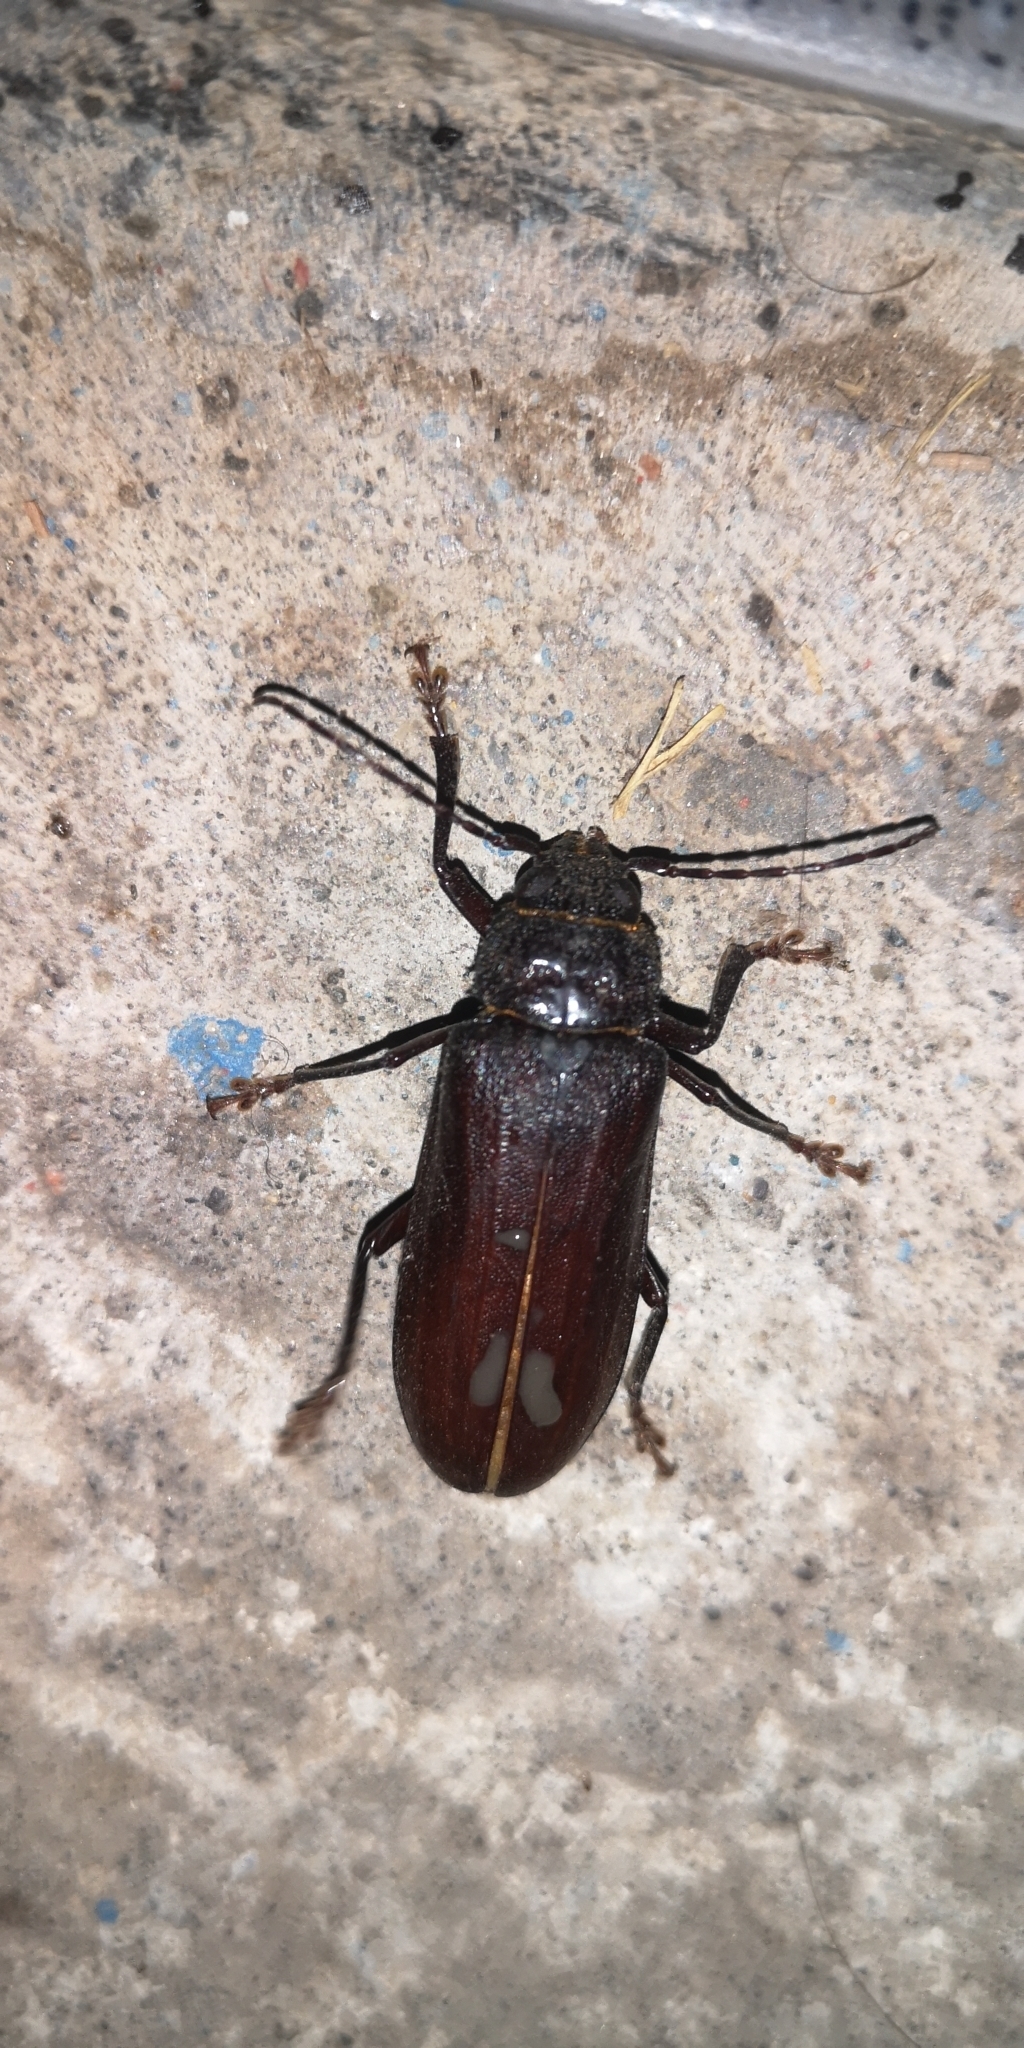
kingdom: Animalia
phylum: Arthropoda
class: Insecta
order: Coleoptera
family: Cerambycidae
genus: Chiasmetes
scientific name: Chiasmetes limae
